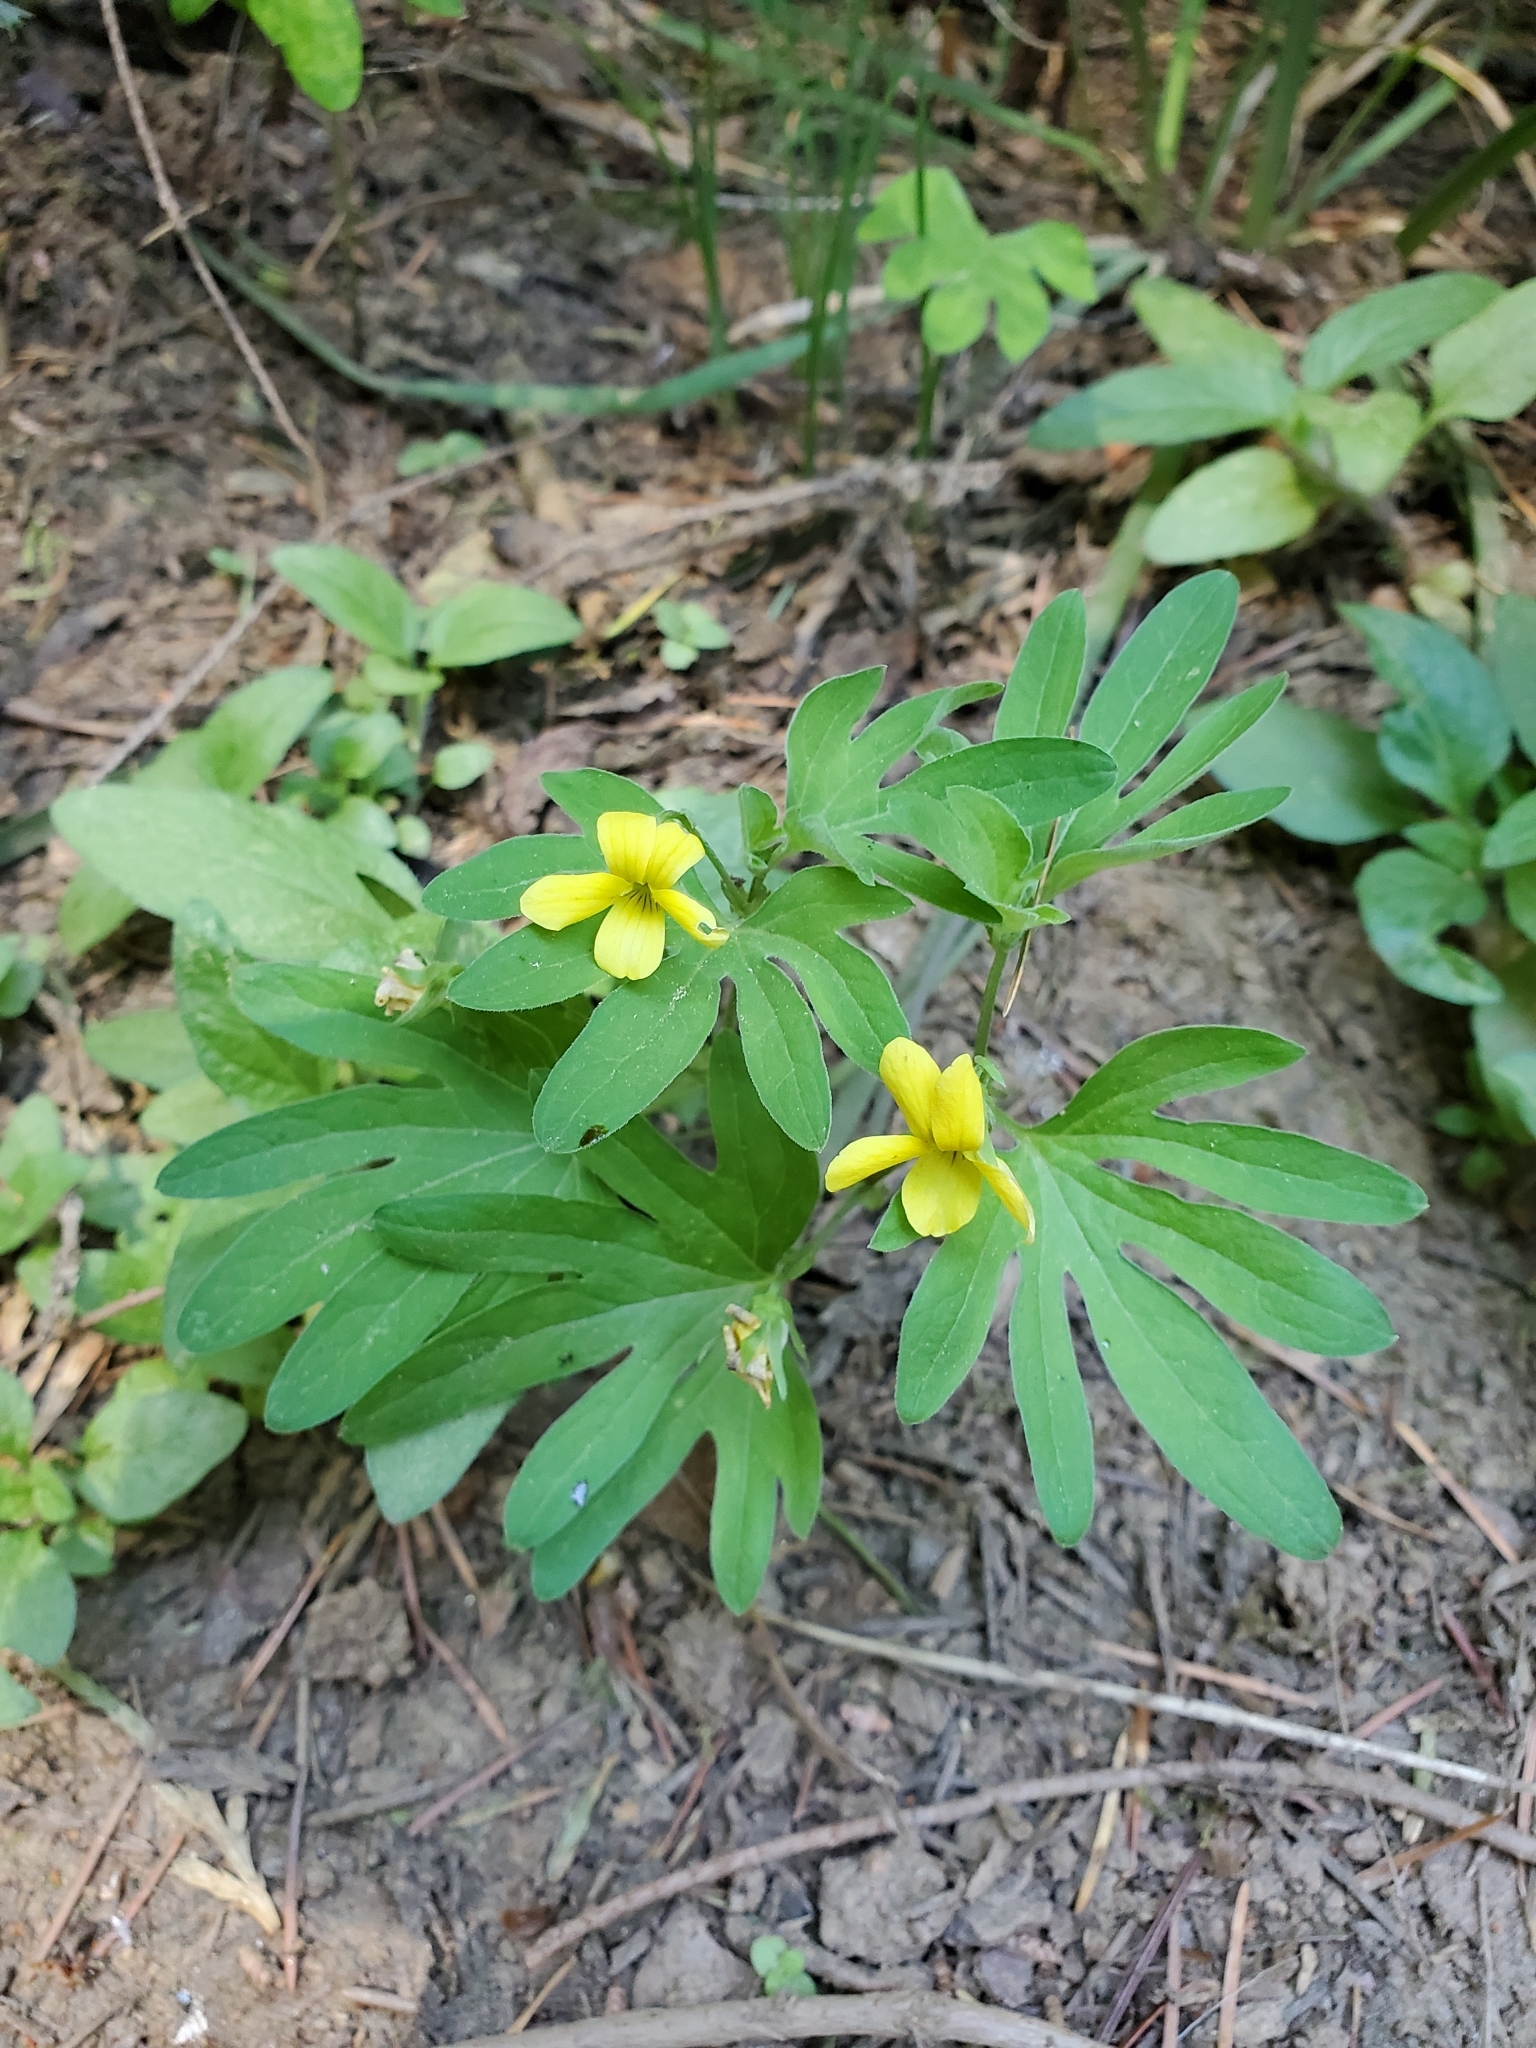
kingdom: Plantae
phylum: Tracheophyta
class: Magnoliopsida
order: Malpighiales
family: Violaceae
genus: Viola
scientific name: Viola lobata
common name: Pine violet
